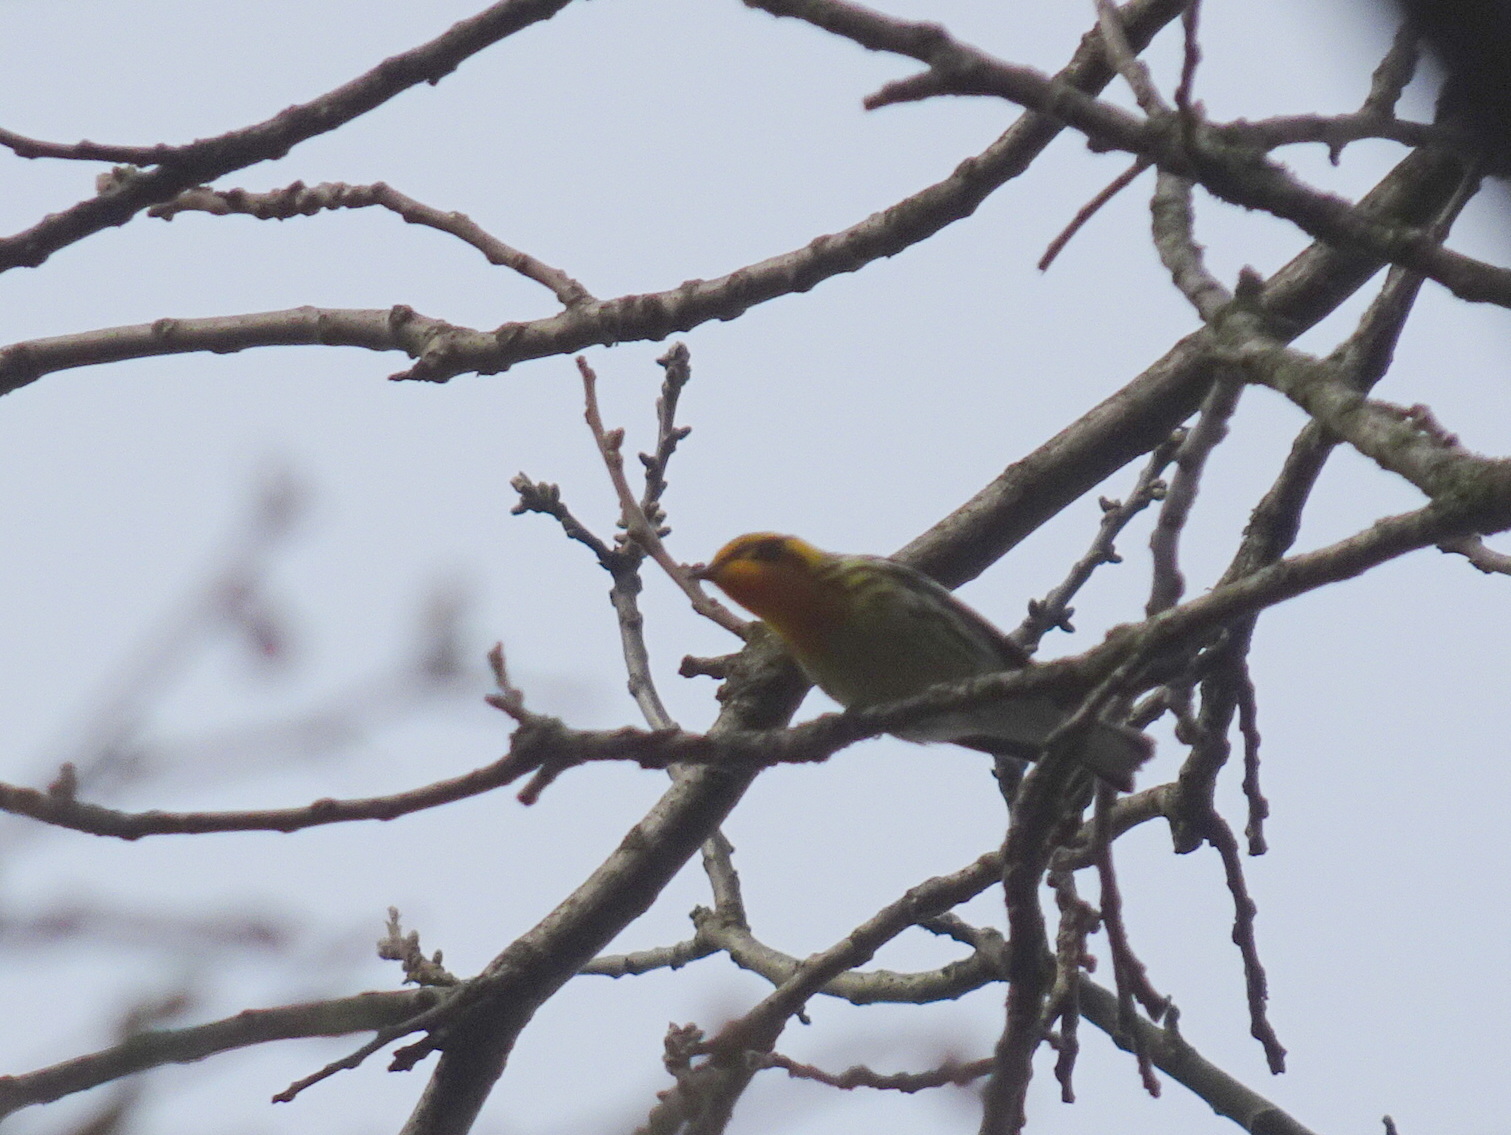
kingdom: Animalia
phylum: Chordata
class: Aves
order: Passeriformes
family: Parulidae
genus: Setophaga
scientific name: Setophaga fusca
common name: Blackburnian warbler
